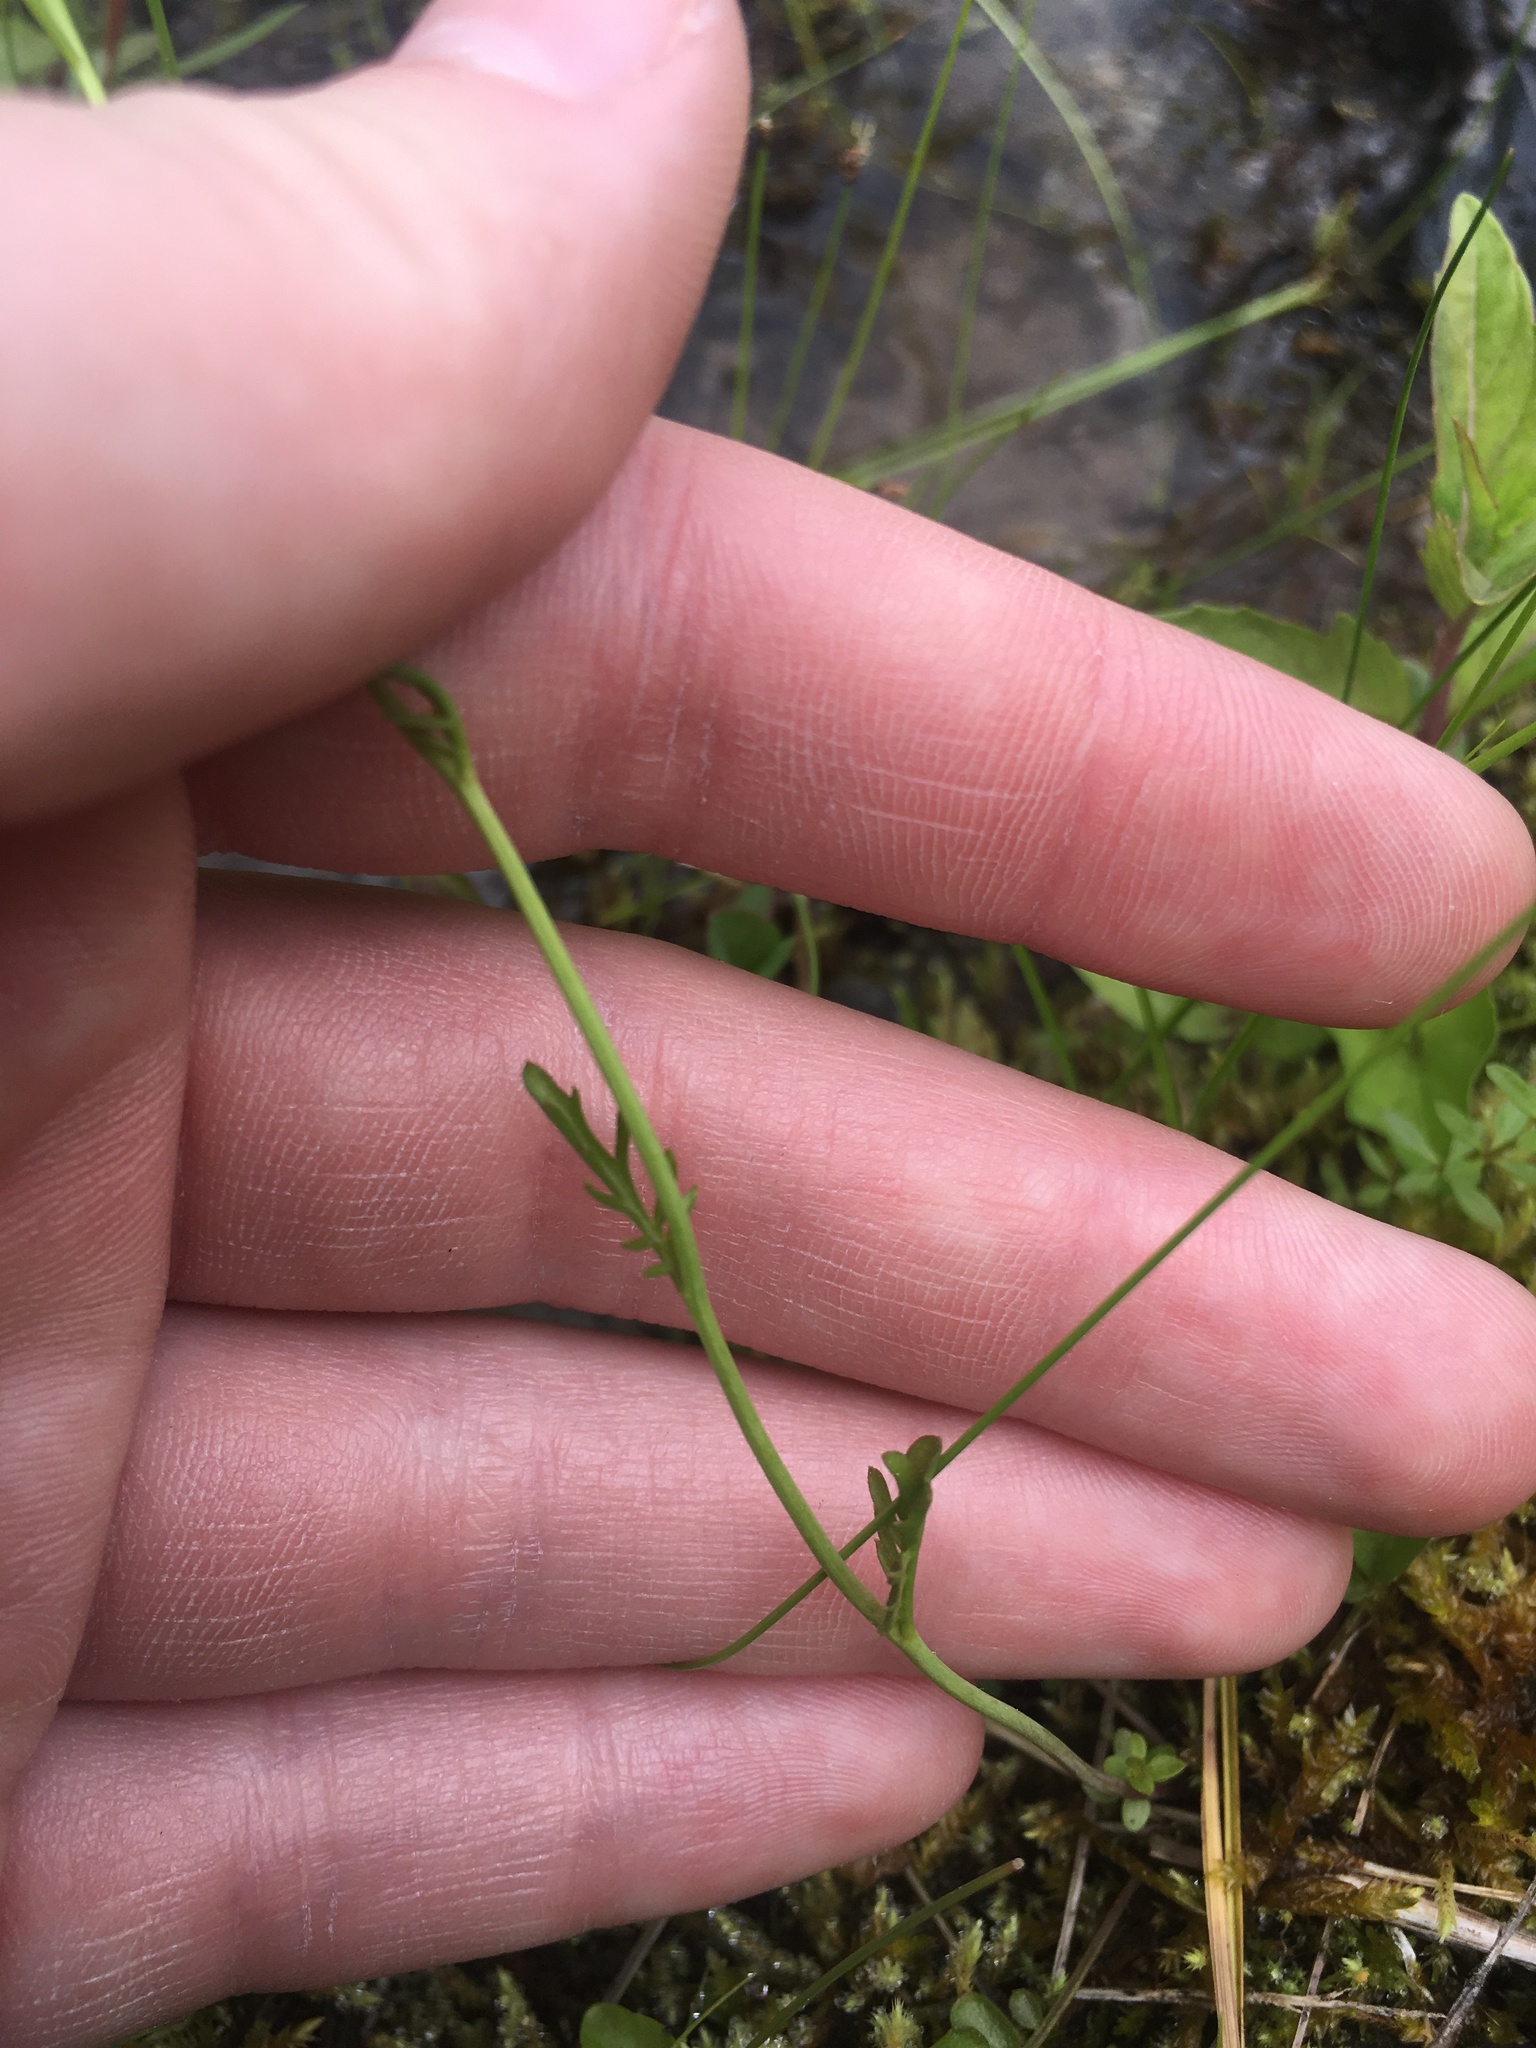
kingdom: Plantae
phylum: Tracheophyta
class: Magnoliopsida
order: Brassicales
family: Brassicaceae
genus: Cardamine
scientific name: Cardamine pratensis
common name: Cuckoo flower
